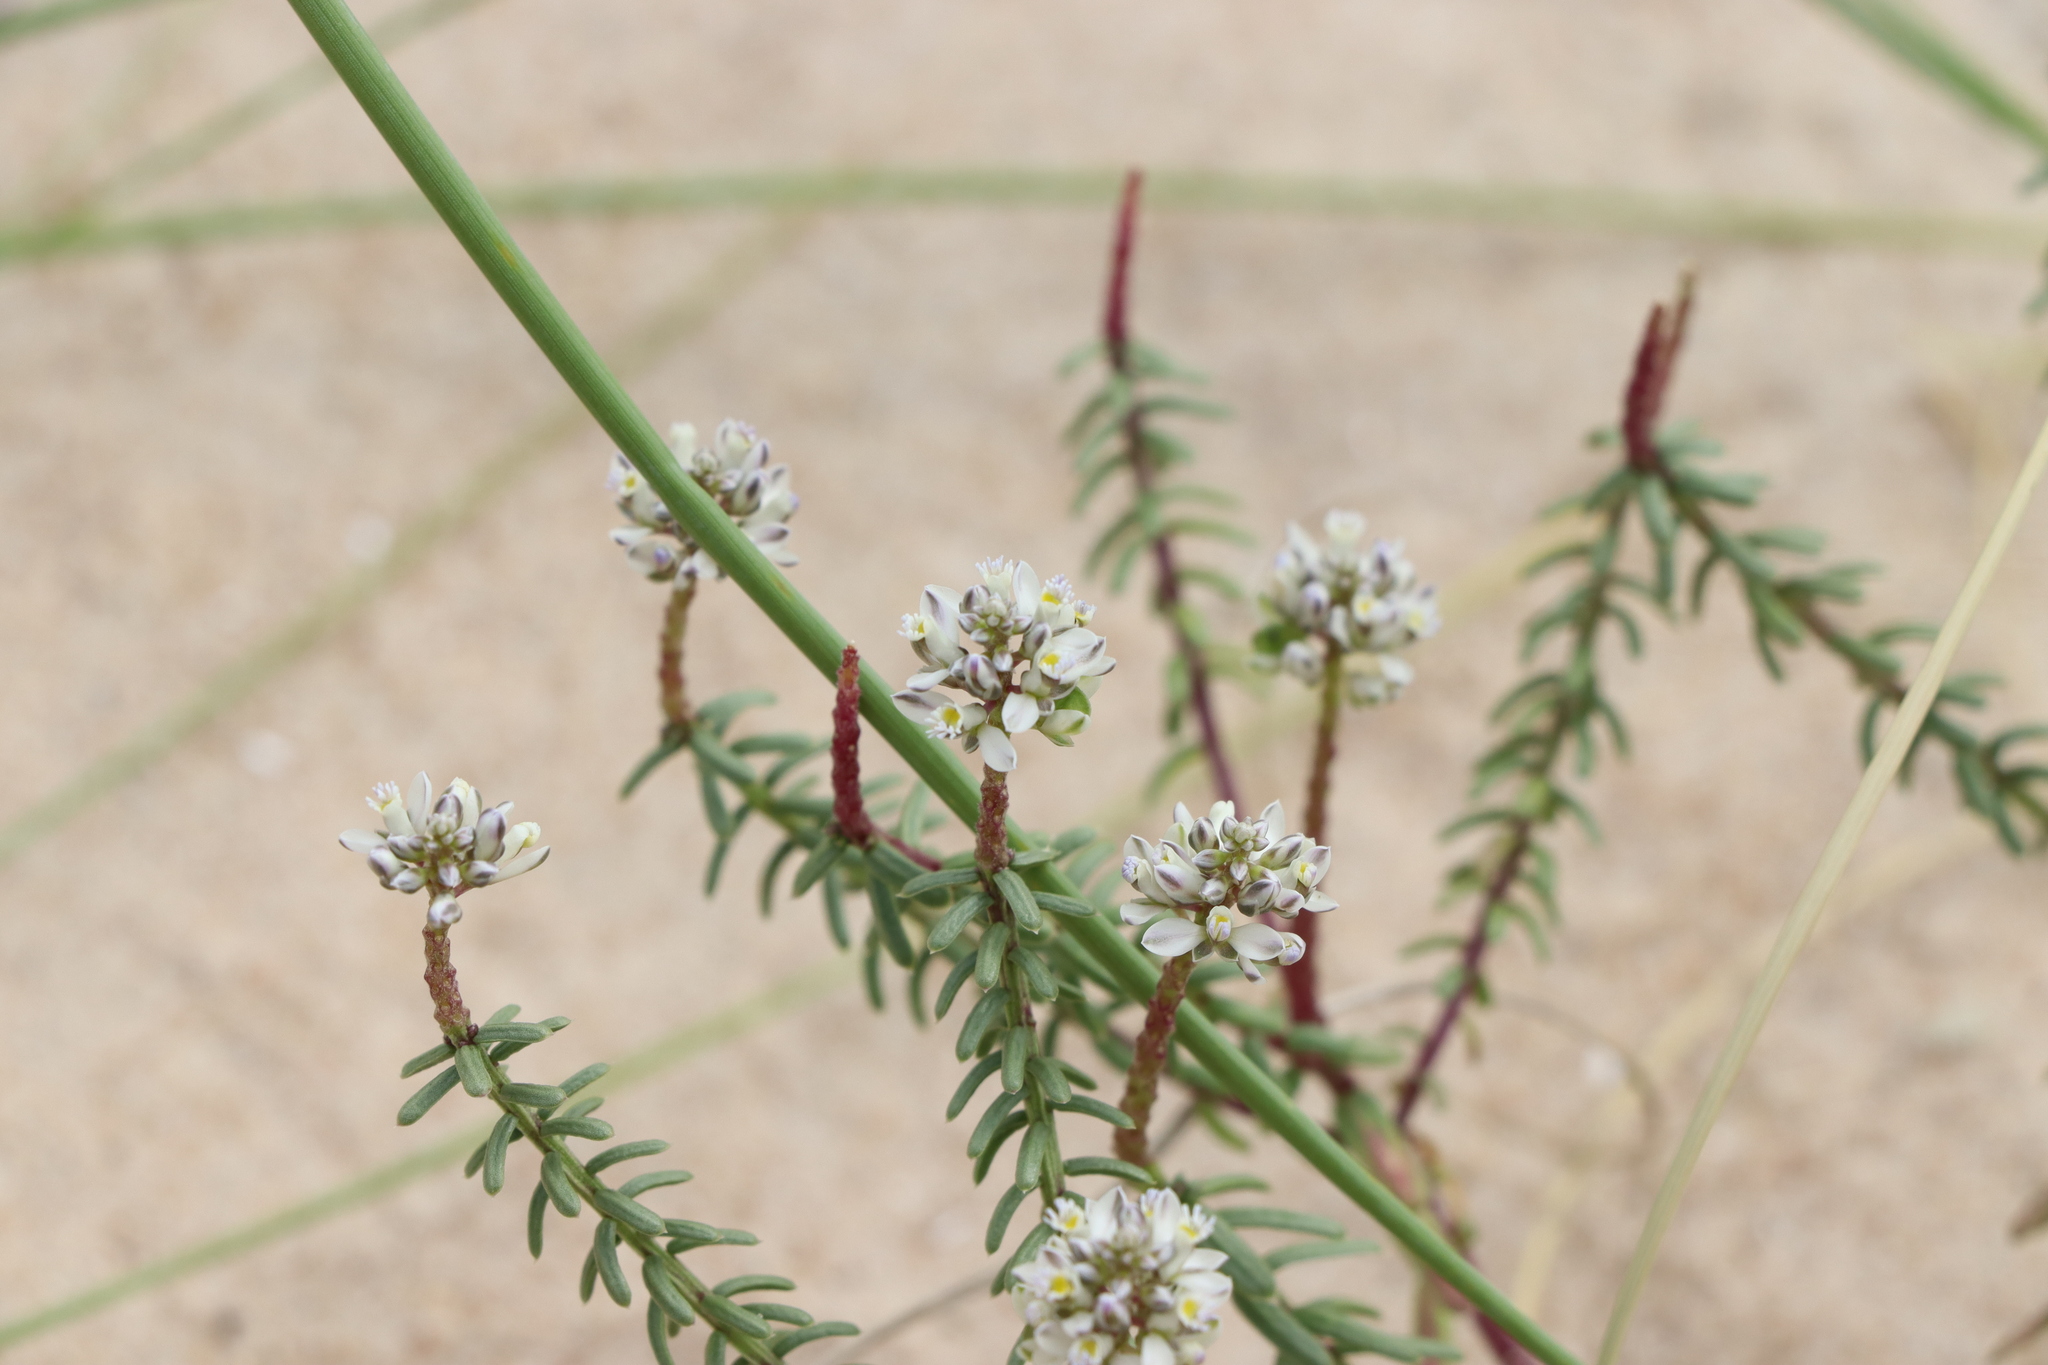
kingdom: Plantae
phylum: Tracheophyta
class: Magnoliopsida
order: Fabales
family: Polygalaceae
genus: Polygala
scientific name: Polygala cyparissias
